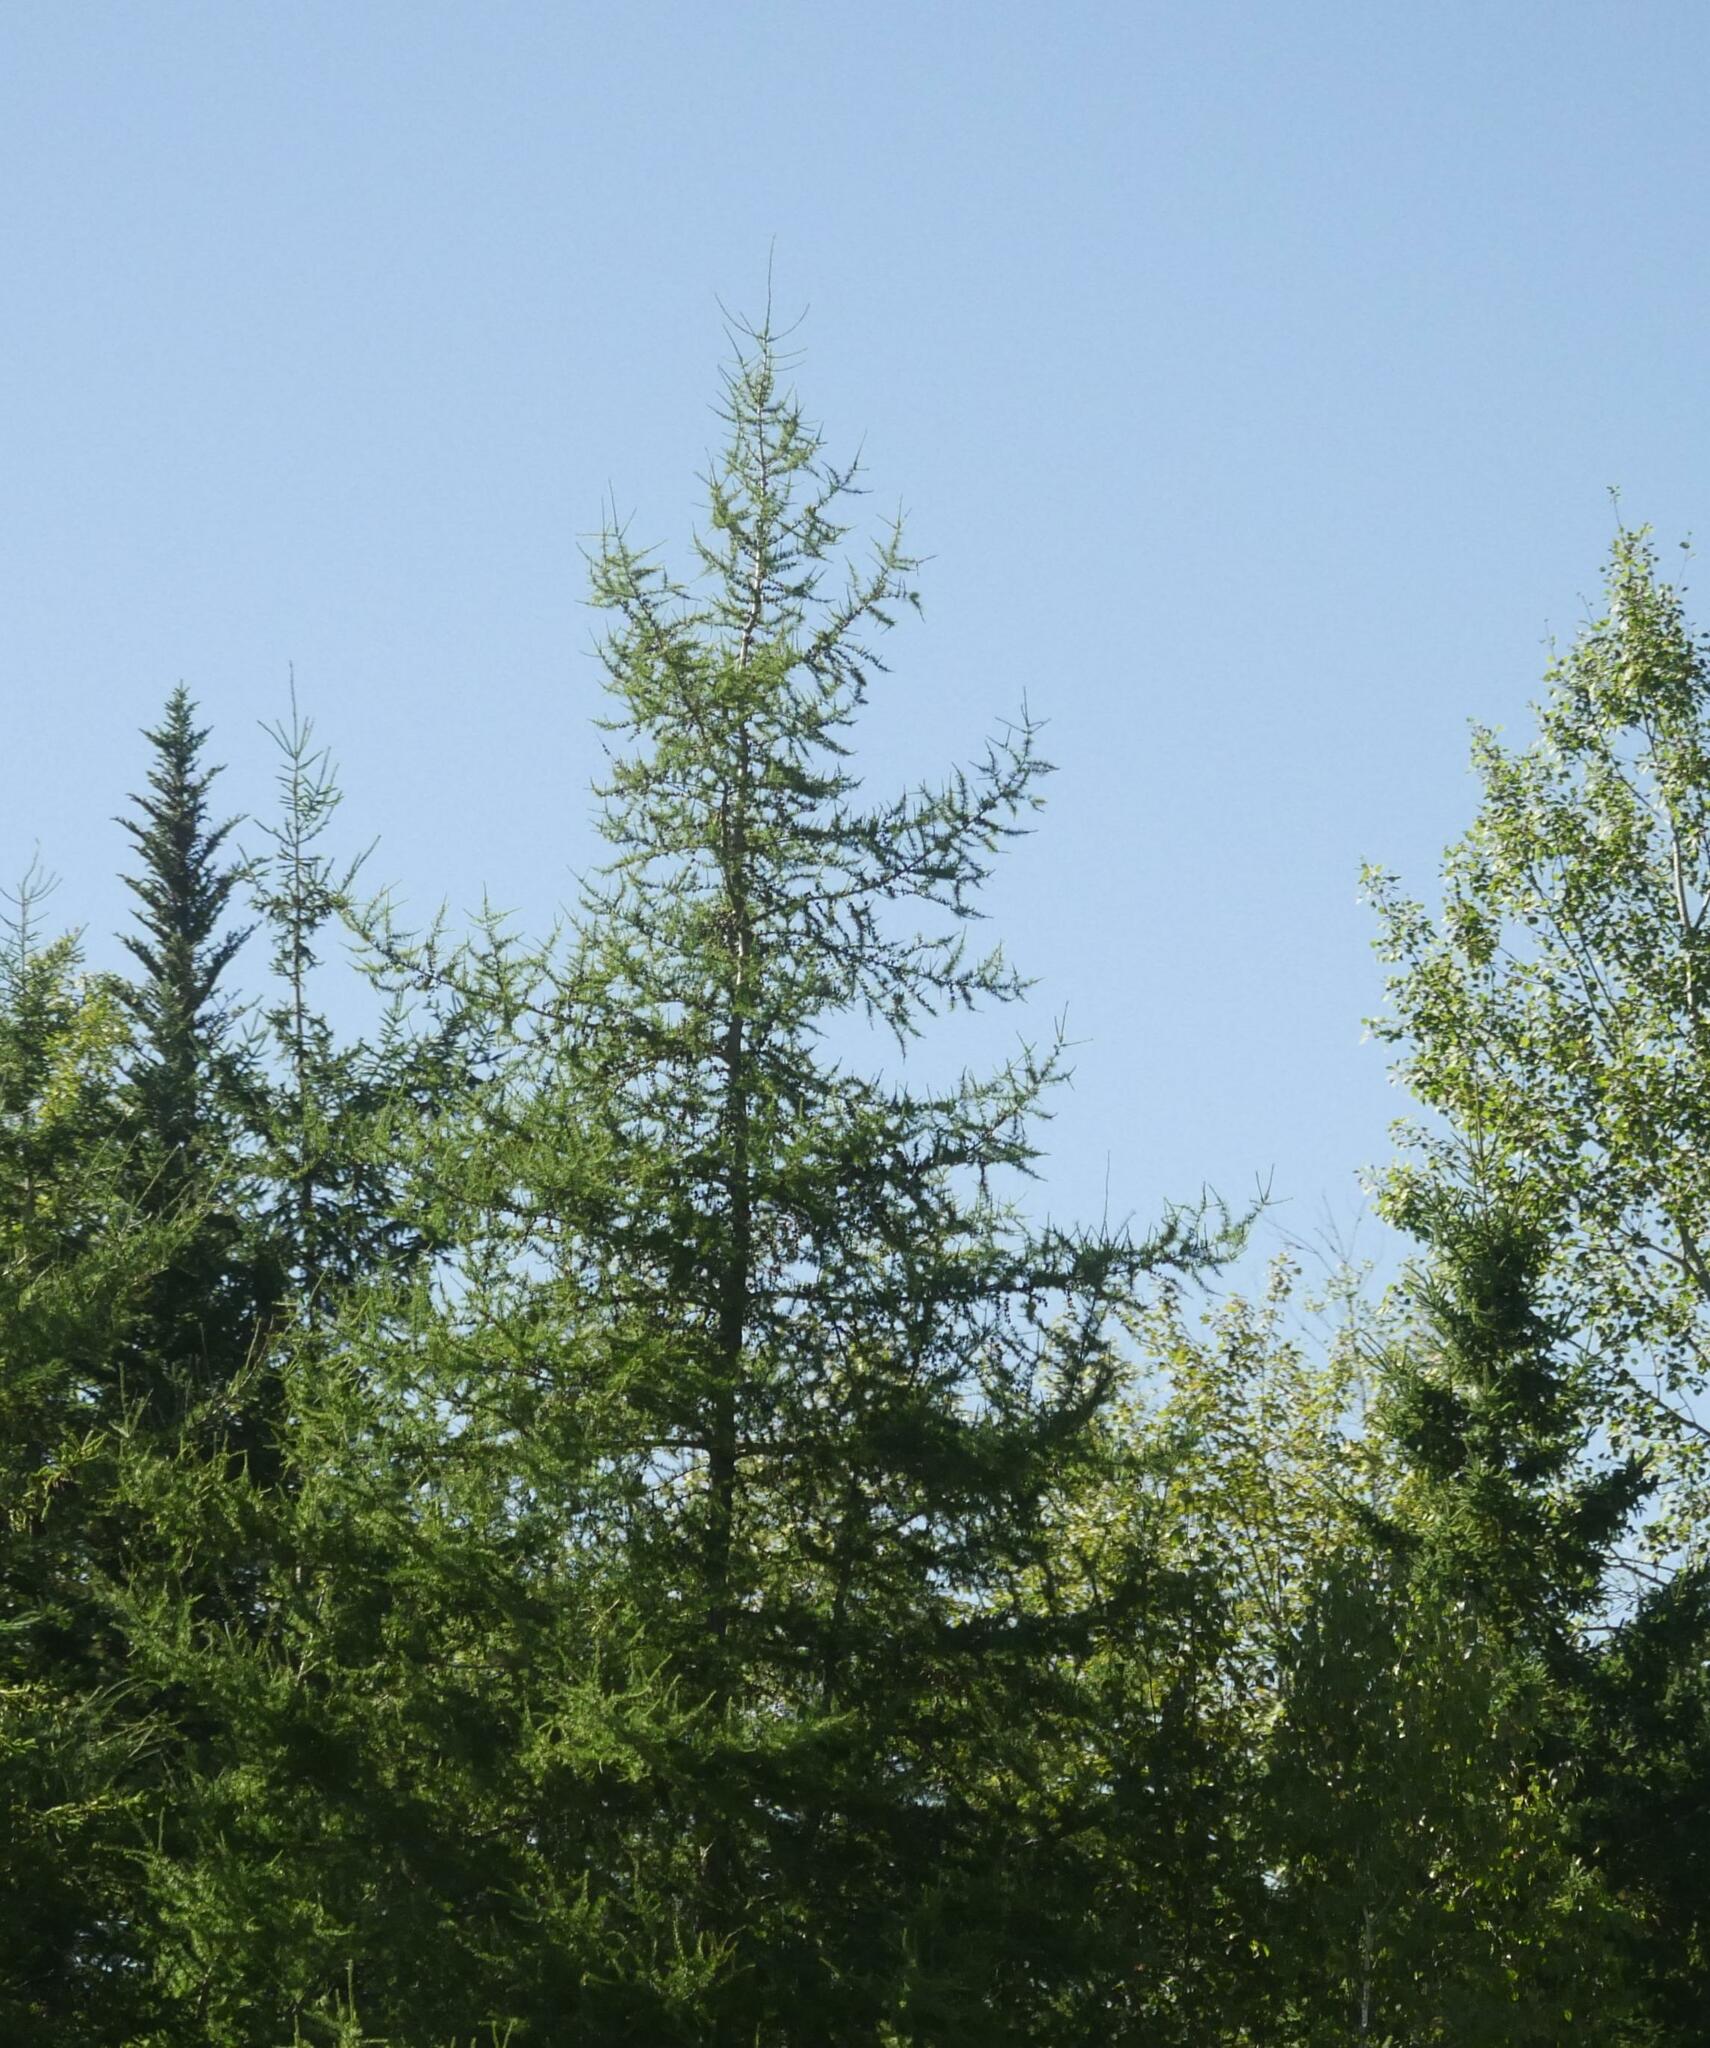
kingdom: Plantae
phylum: Tracheophyta
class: Pinopsida
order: Pinales
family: Pinaceae
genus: Larix
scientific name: Larix laricina
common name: American larch
